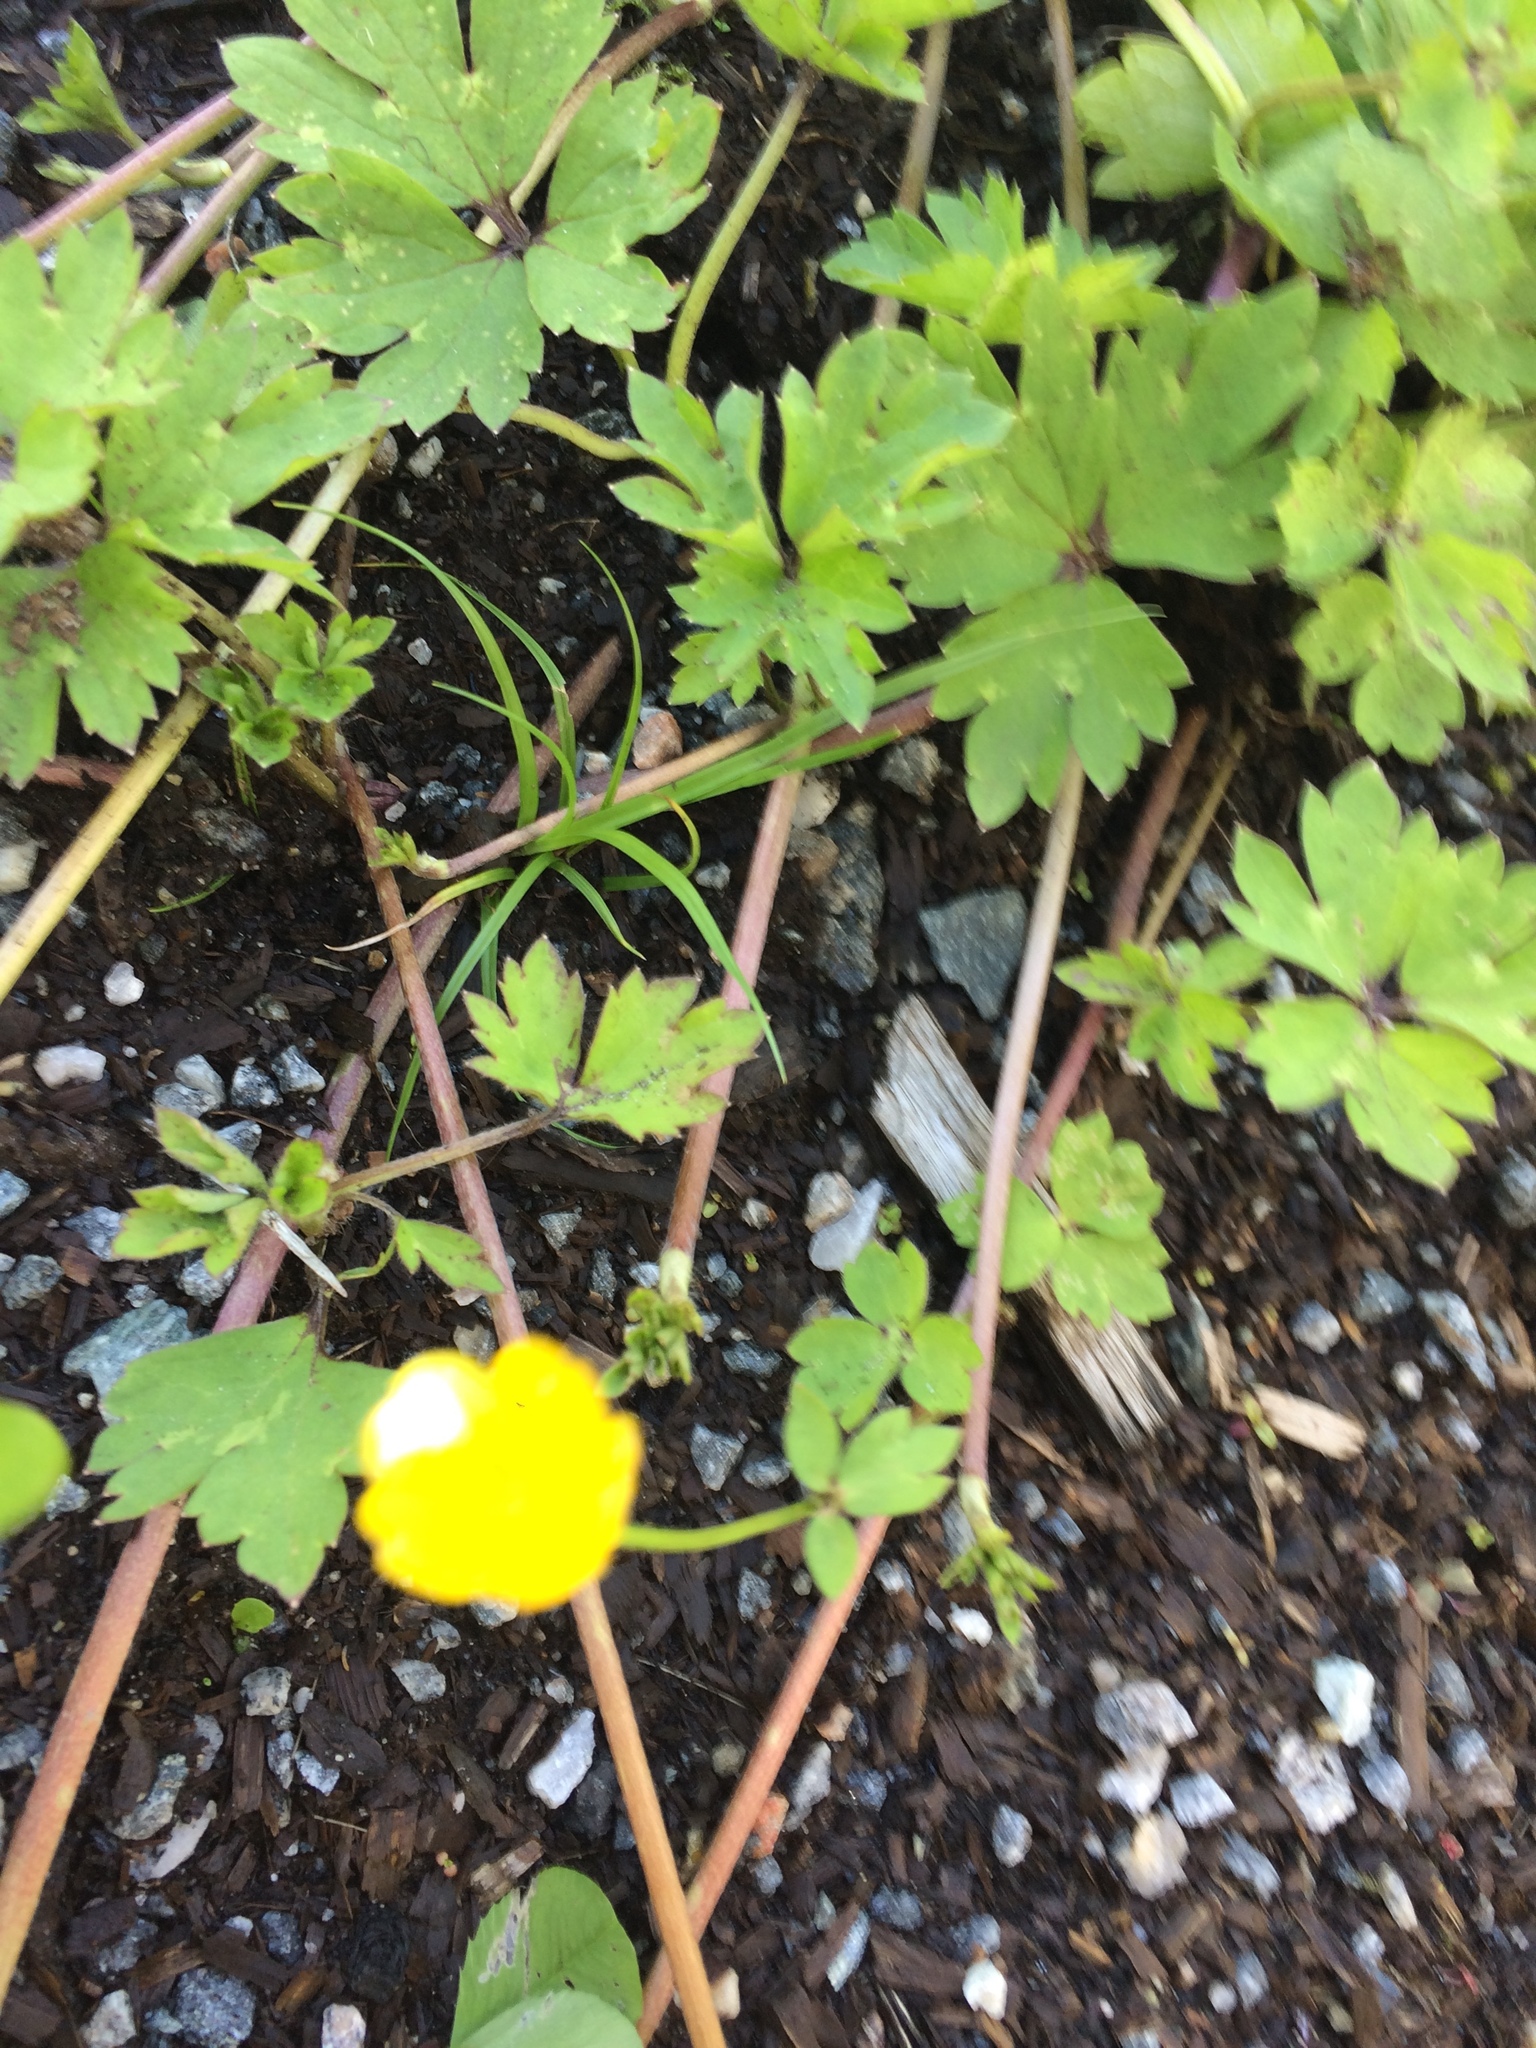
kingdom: Plantae
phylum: Tracheophyta
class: Magnoliopsida
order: Ranunculales
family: Ranunculaceae
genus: Ranunculus
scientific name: Ranunculus repens
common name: Creeping buttercup
